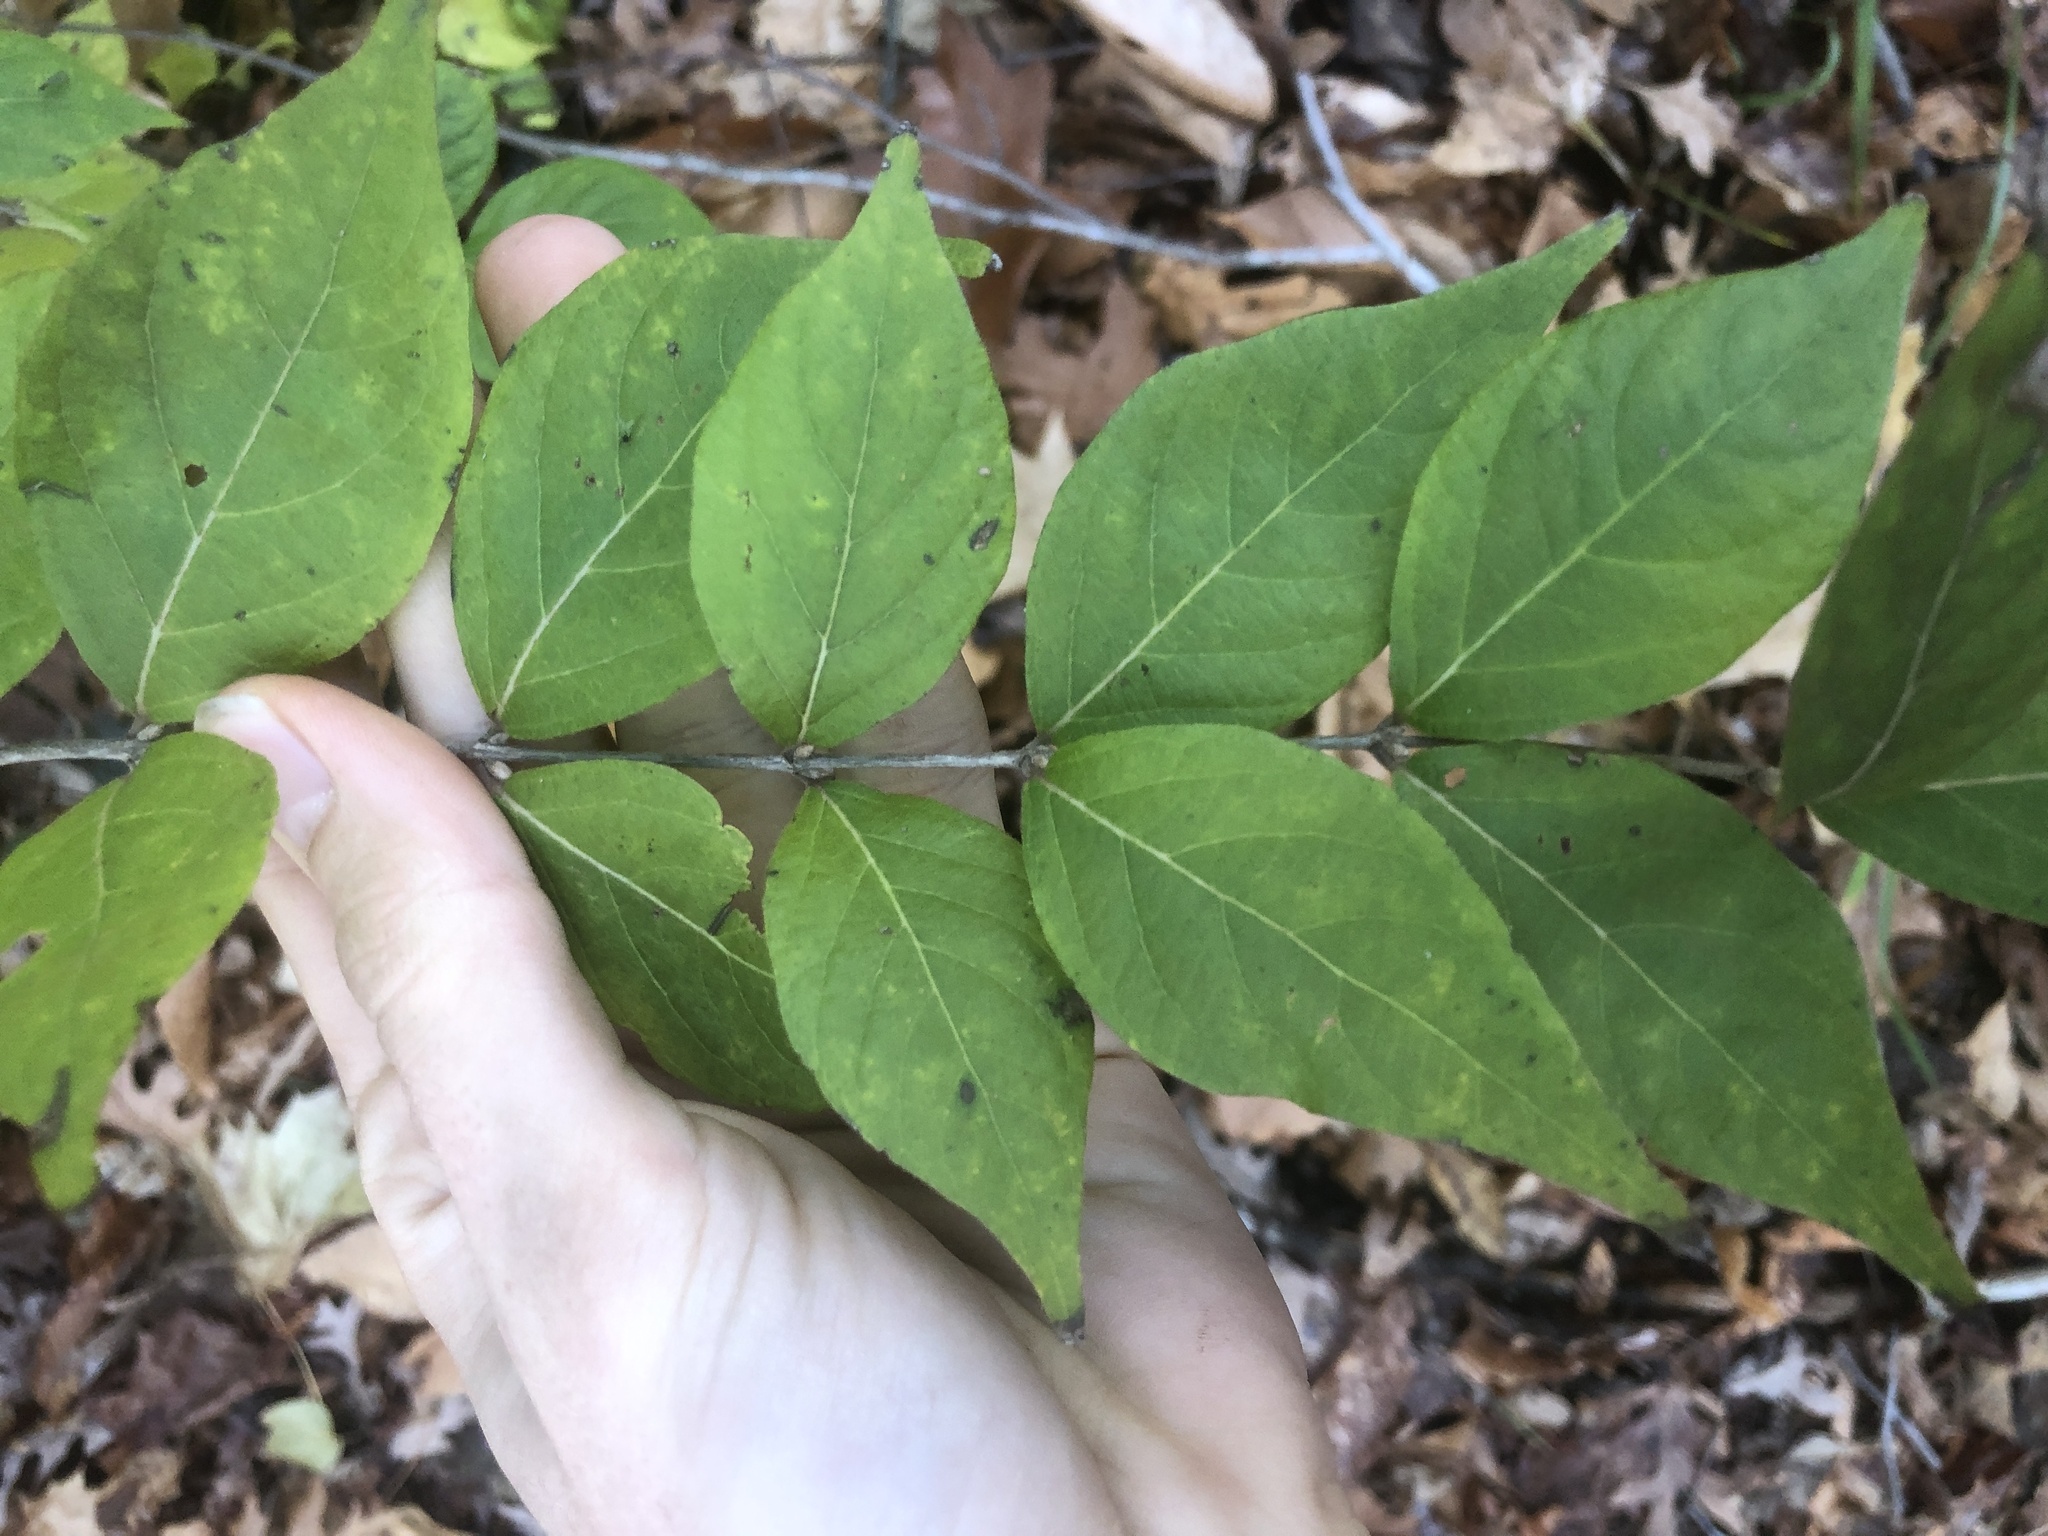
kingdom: Plantae
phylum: Tracheophyta
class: Magnoliopsida
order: Dipsacales
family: Caprifoliaceae
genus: Lonicera
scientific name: Lonicera maackii
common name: Amur honeysuckle
